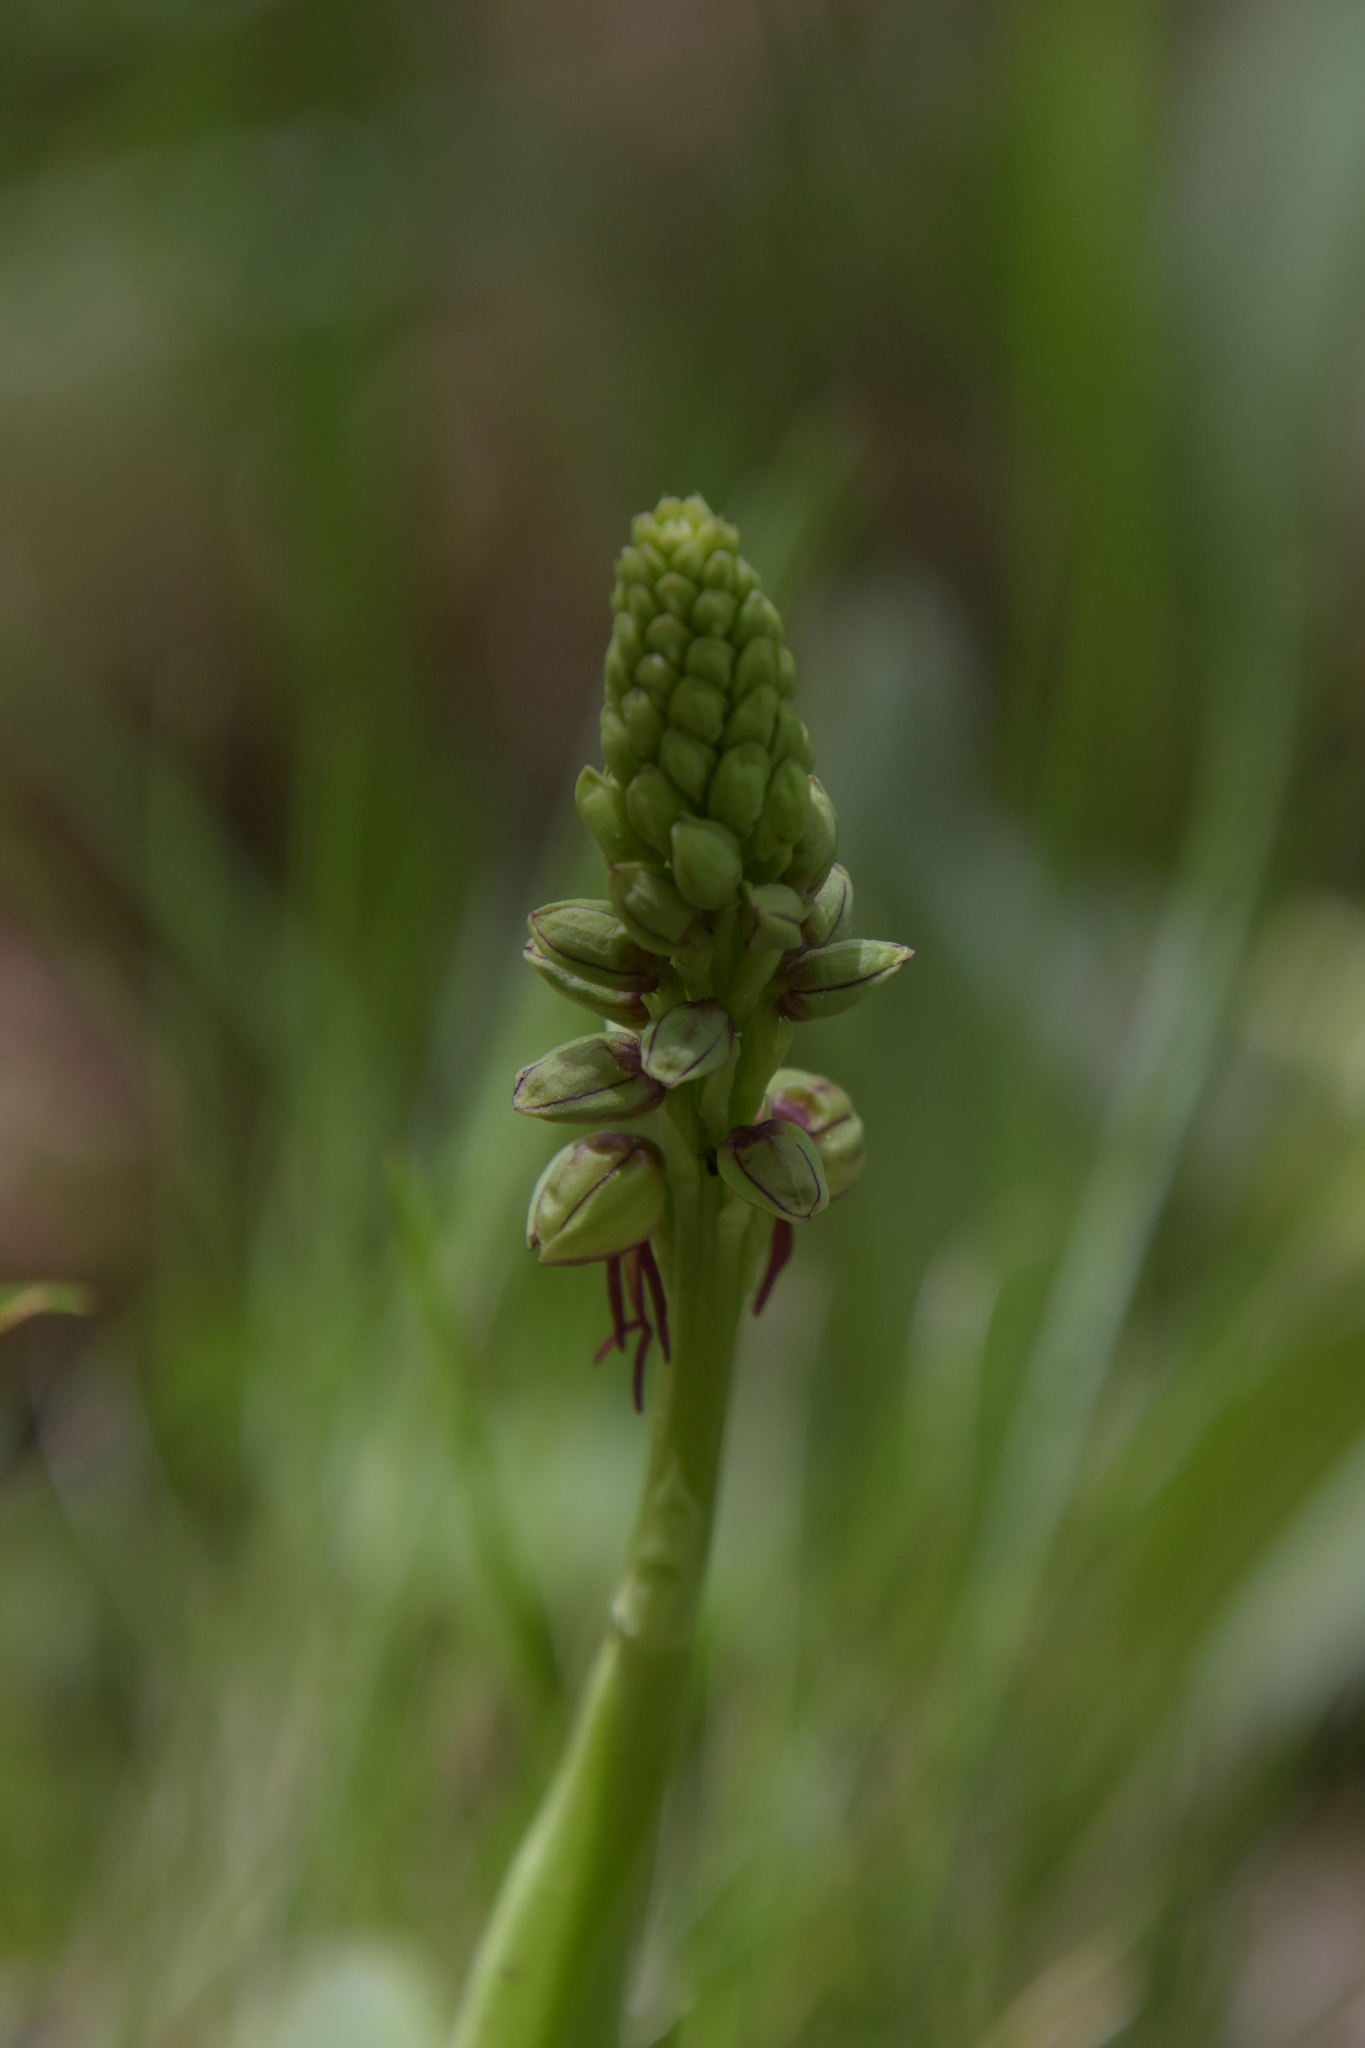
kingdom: Plantae
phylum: Tracheophyta
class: Liliopsida
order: Asparagales
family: Orchidaceae
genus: Orchis
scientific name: Orchis anthropophora
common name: Man orchid
